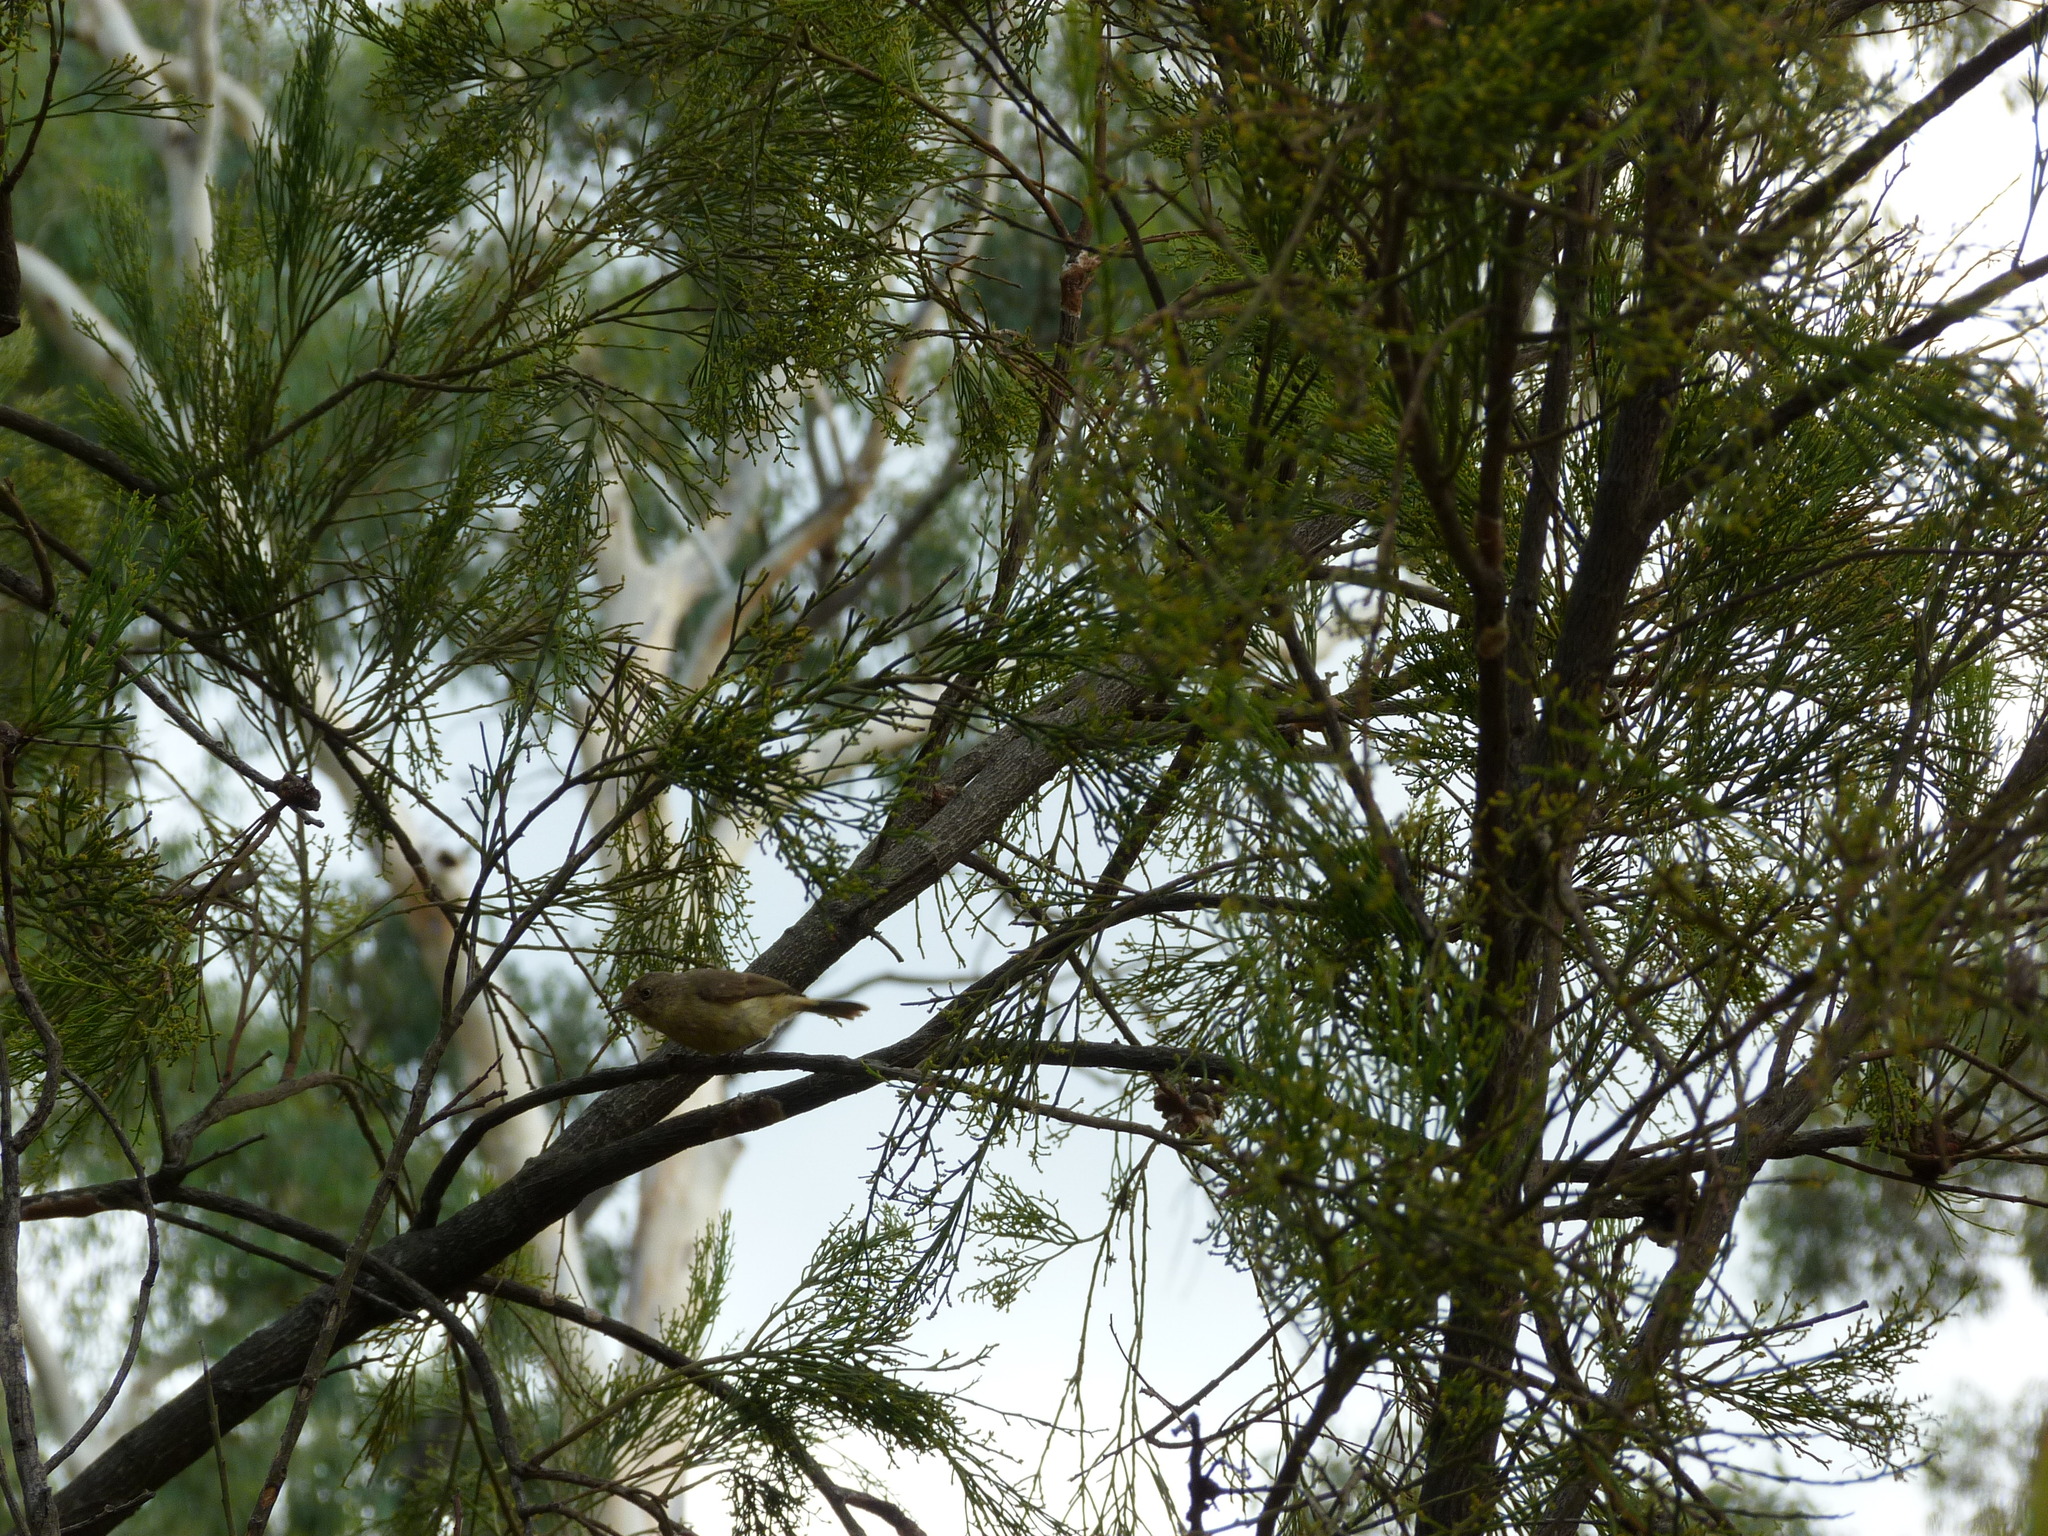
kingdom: Animalia
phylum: Chordata
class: Aves
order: Passeriformes
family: Acanthizidae
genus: Acanthiza
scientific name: Acanthiza reguloides
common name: Buff-rumped thornbill
